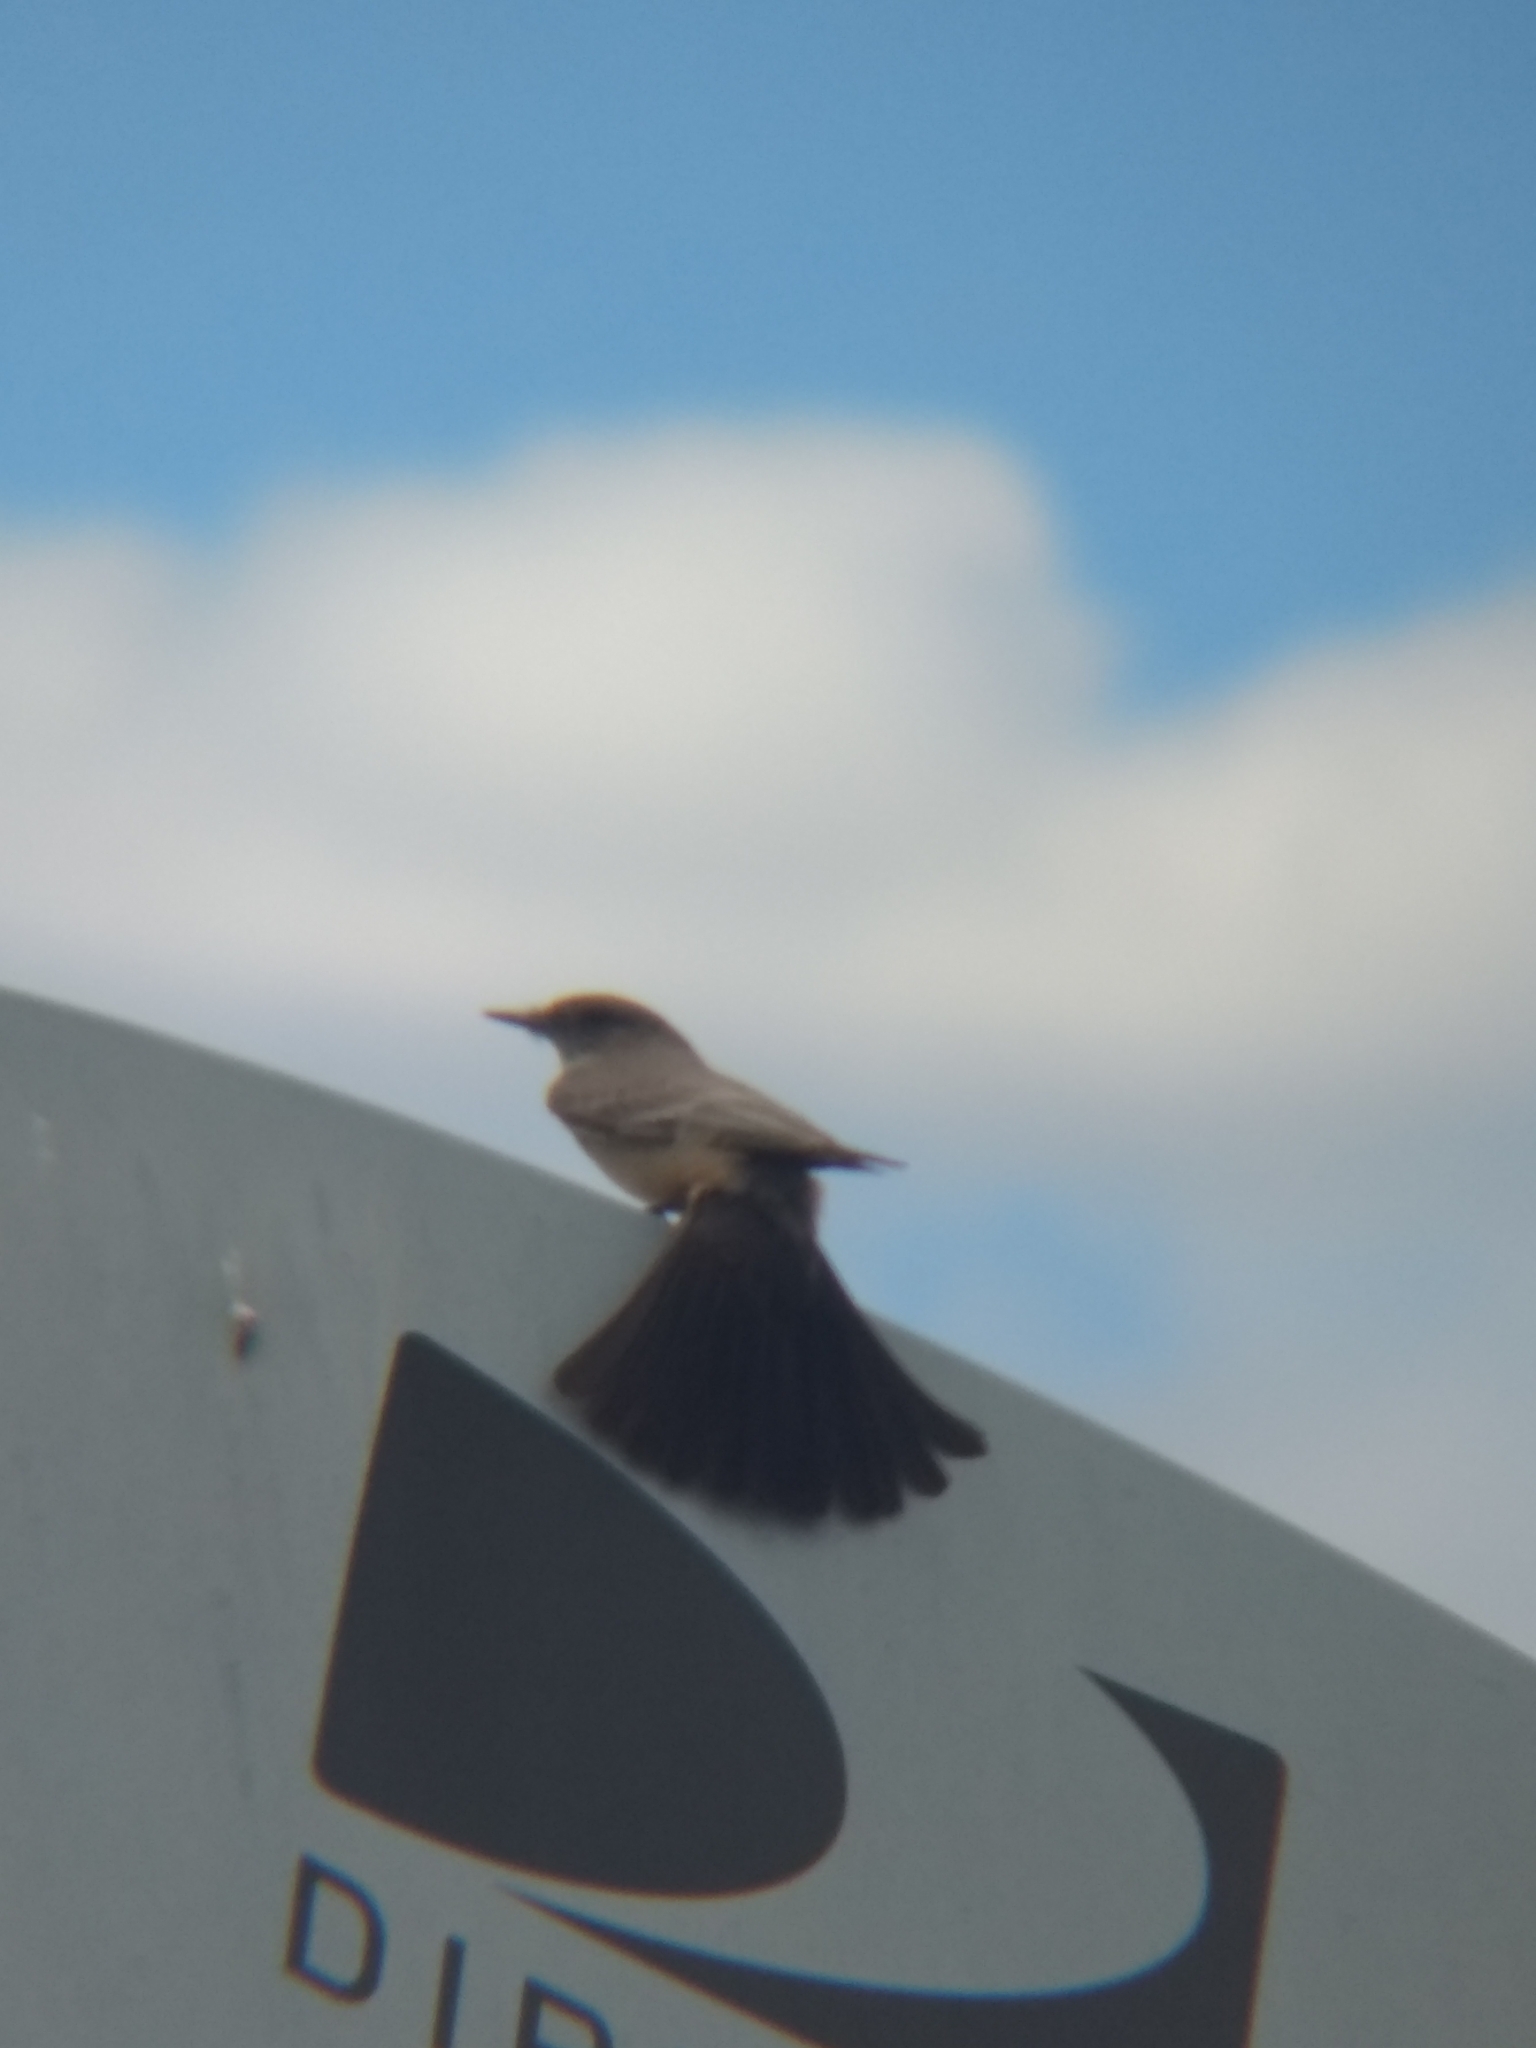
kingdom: Animalia
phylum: Chordata
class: Aves
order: Passeriformes
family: Tyrannidae
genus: Sayornis
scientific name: Sayornis saya
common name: Say's phoebe
